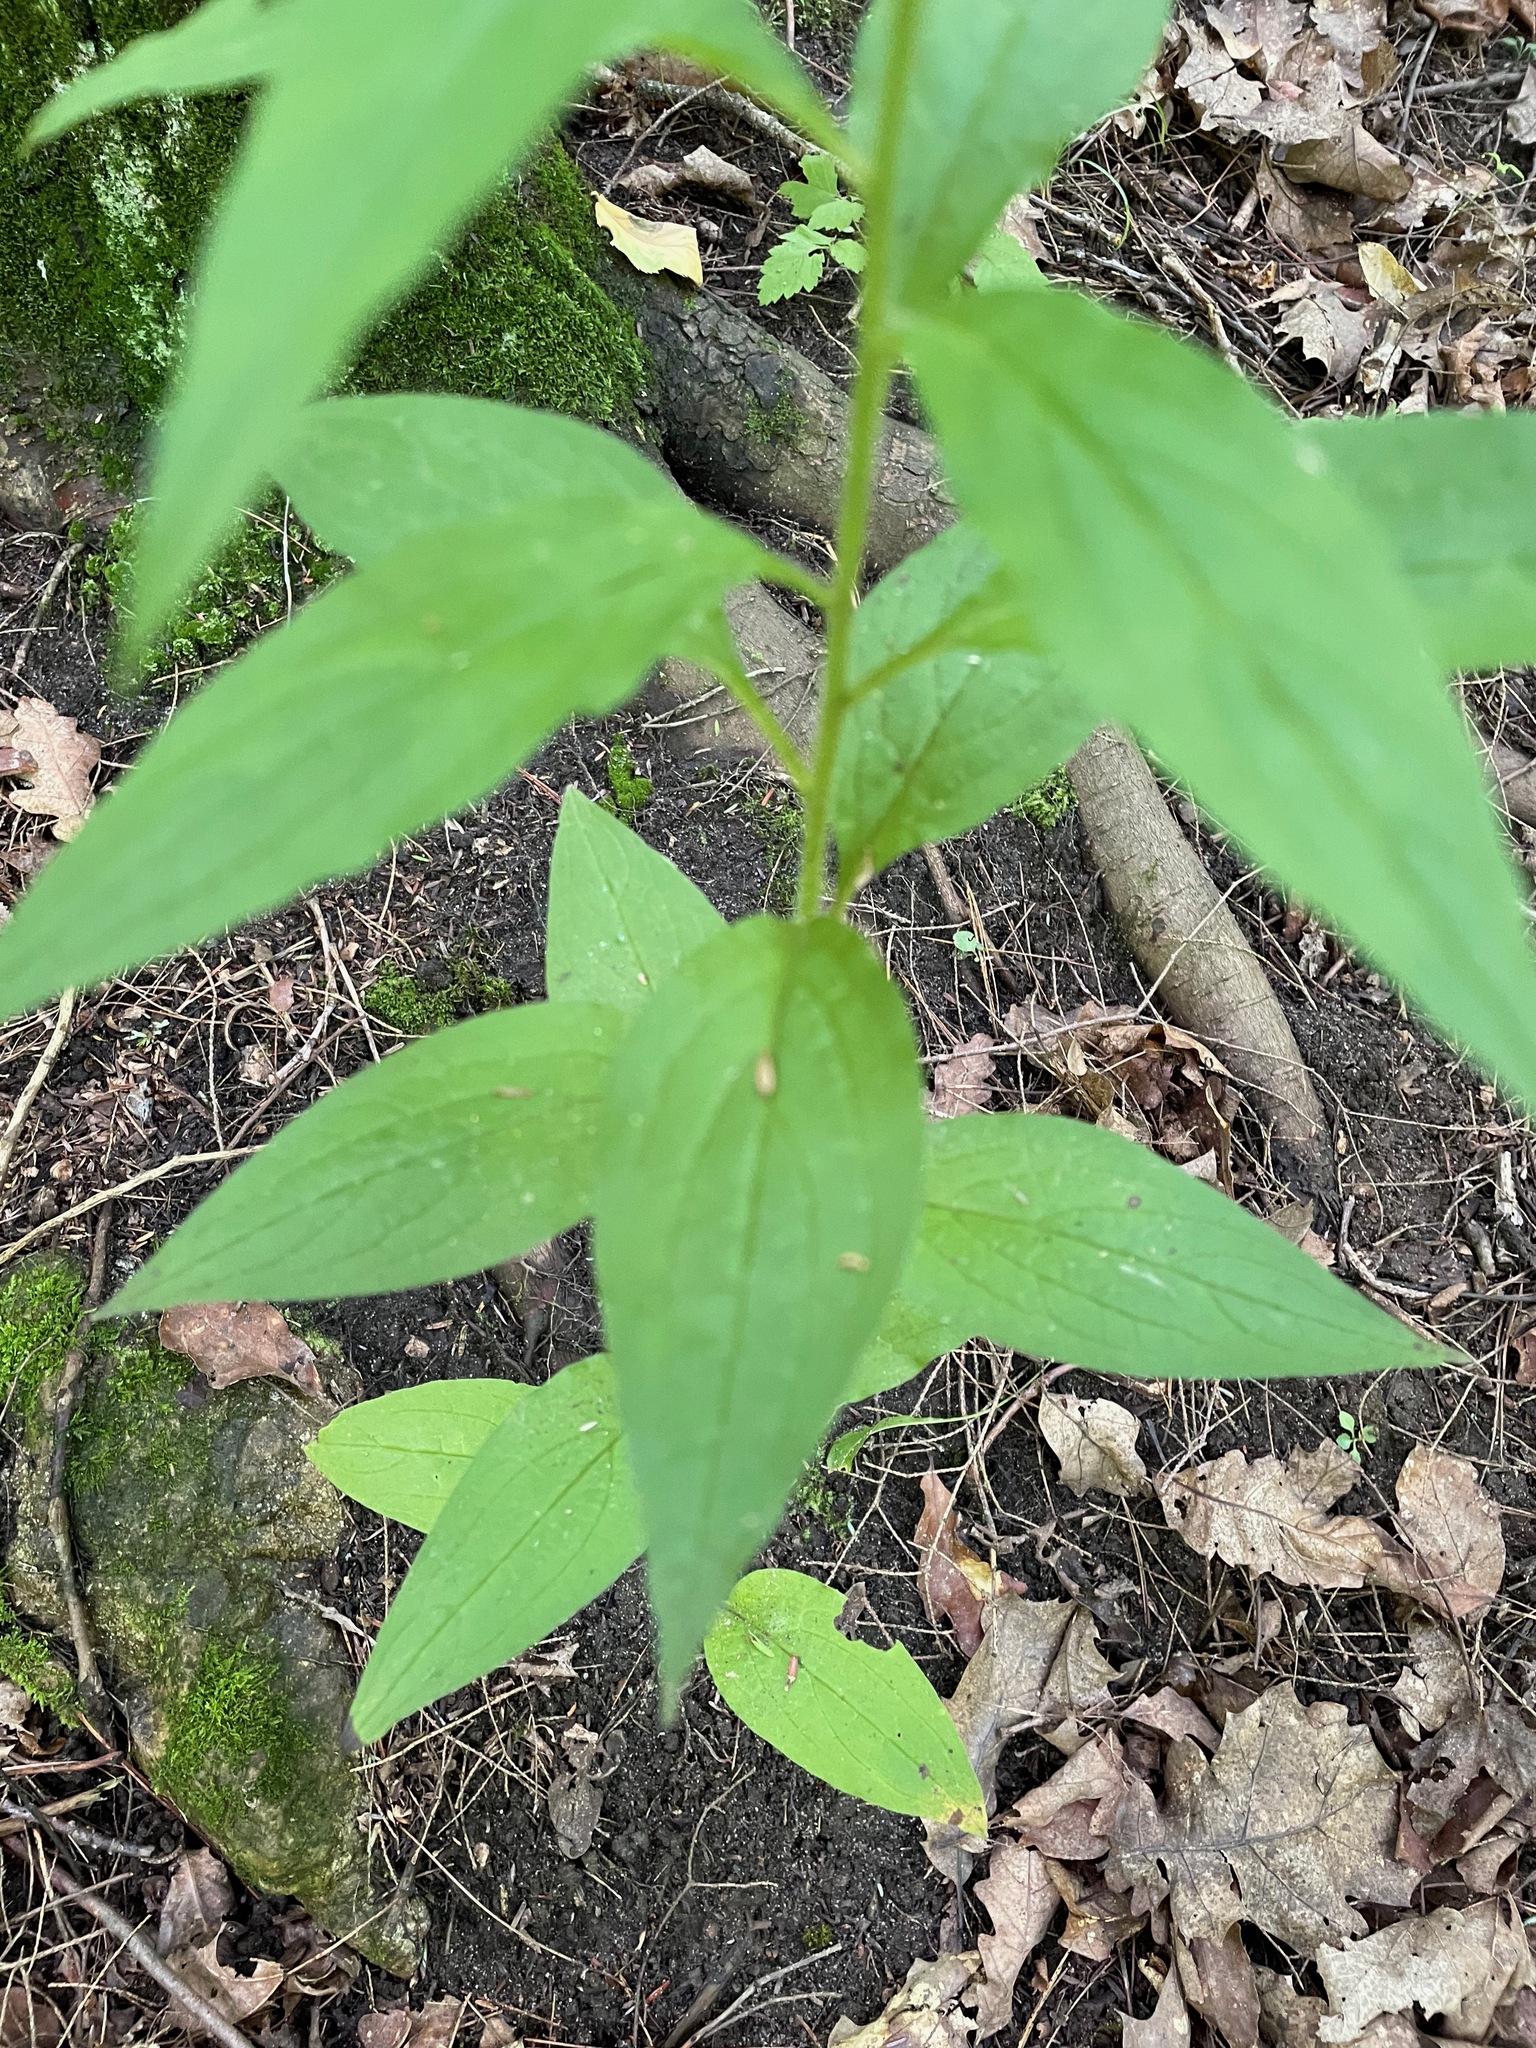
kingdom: Plantae
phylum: Tracheophyta
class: Magnoliopsida
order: Boraginales
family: Boraginaceae
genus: Hackelia
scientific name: Hackelia virginiana
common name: Beggar's-lice
